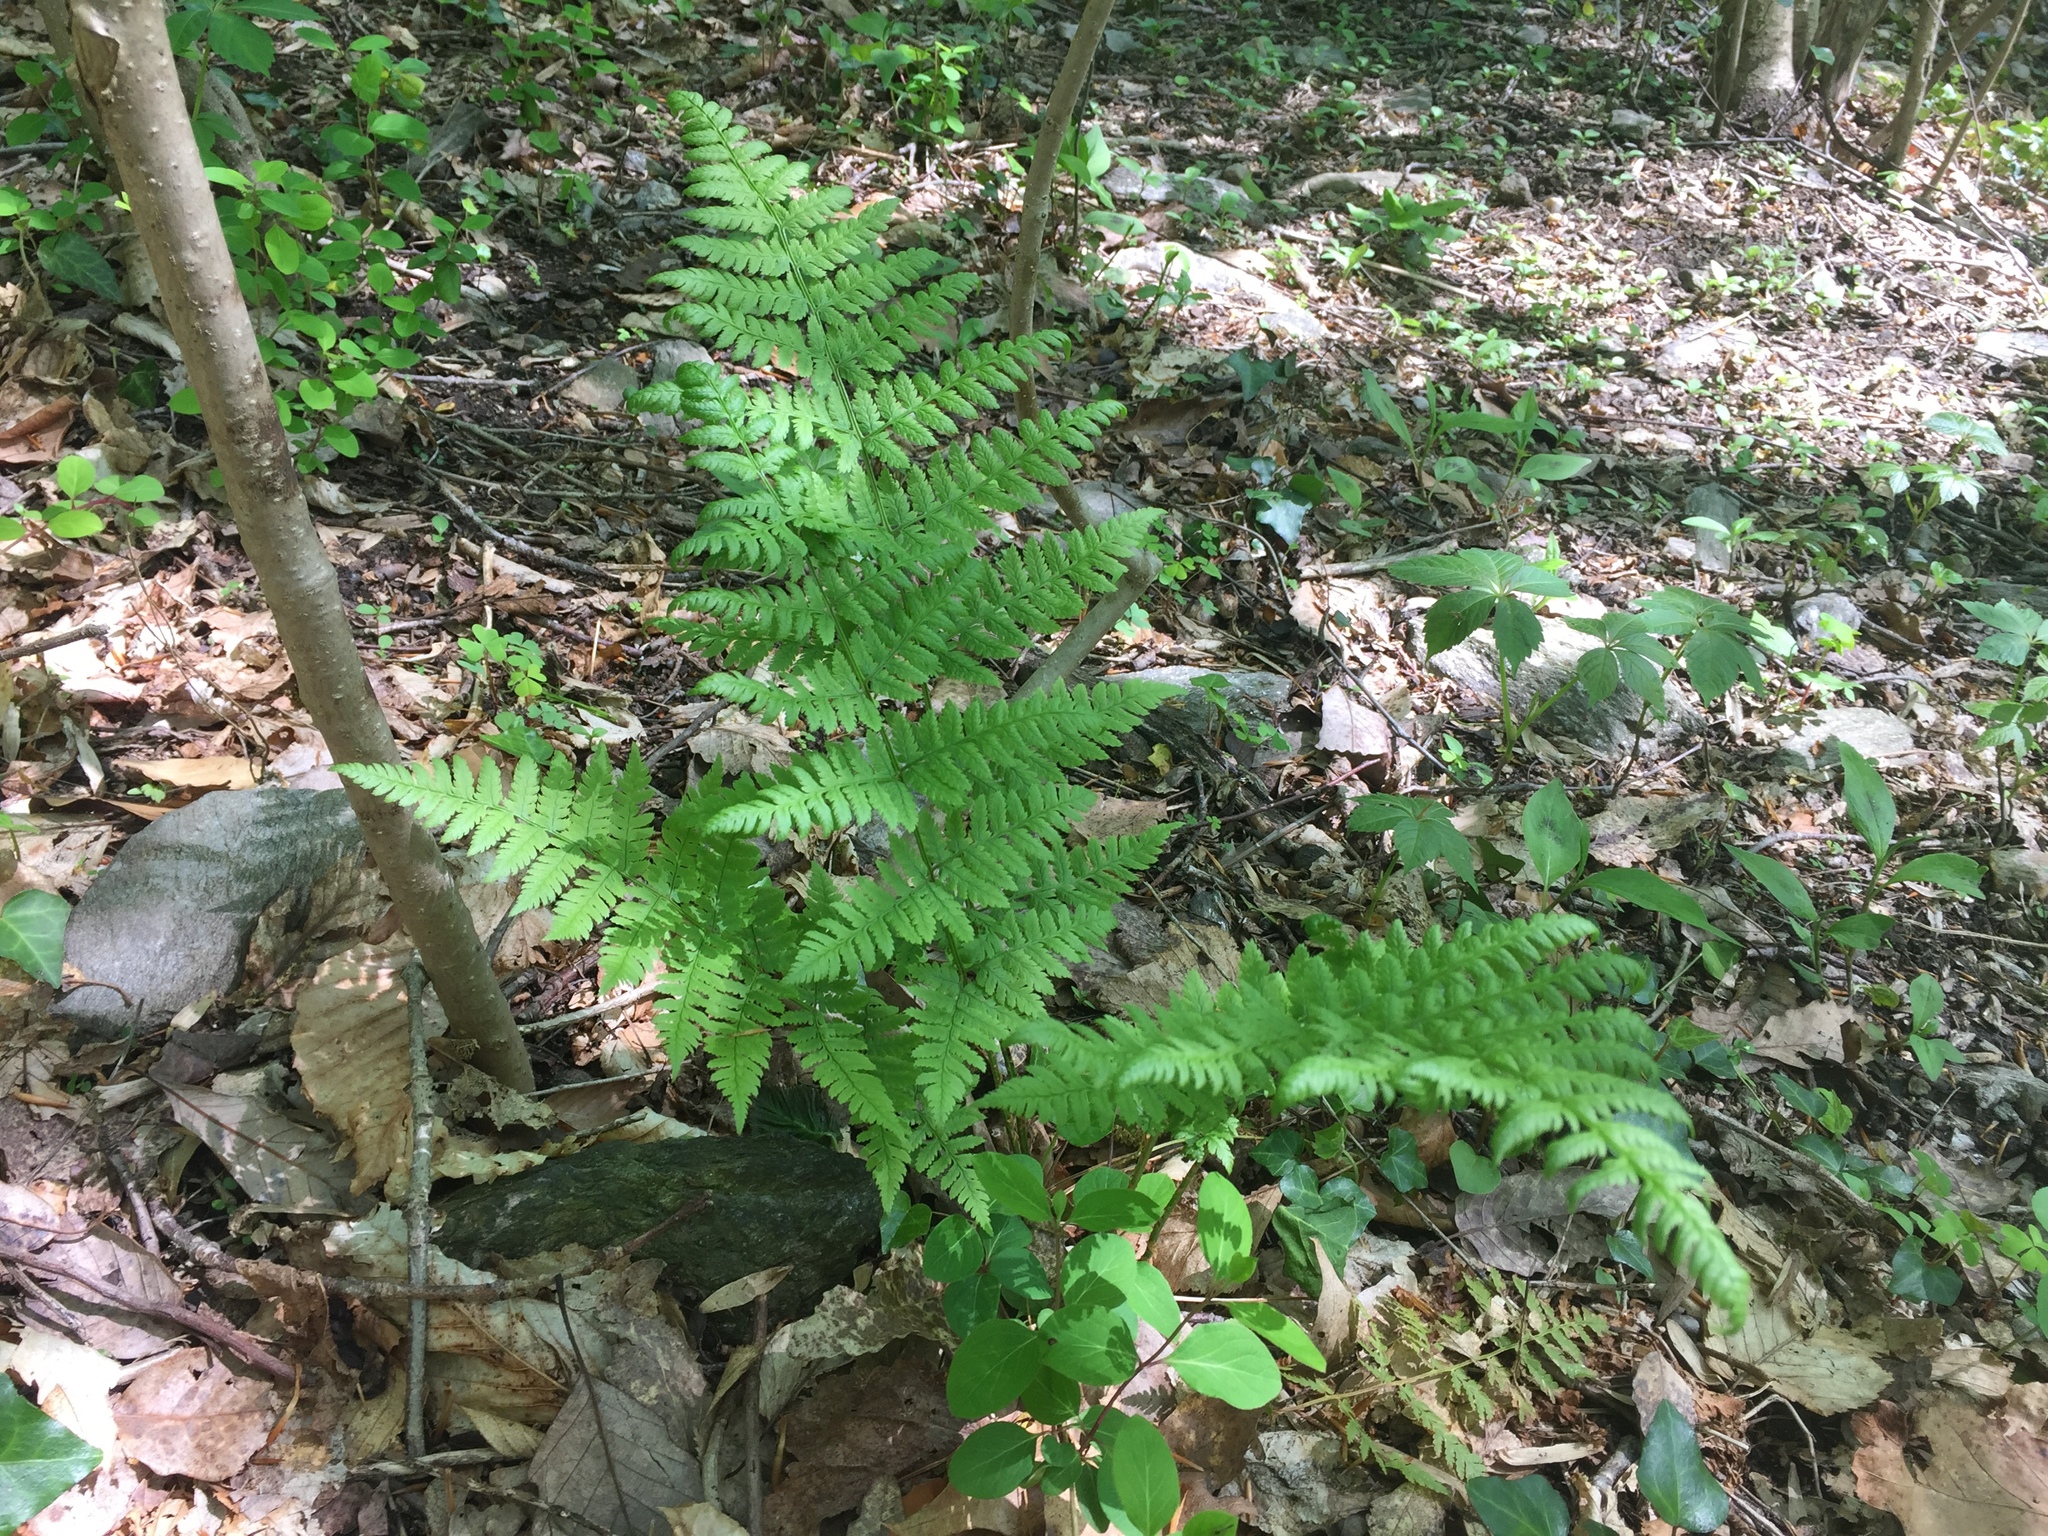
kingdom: Plantae
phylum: Tracheophyta
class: Polypodiopsida
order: Polypodiales
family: Dryopteridaceae
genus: Dryopteris
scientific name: Dryopteris carthusiana
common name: Narrow buckler-fern
